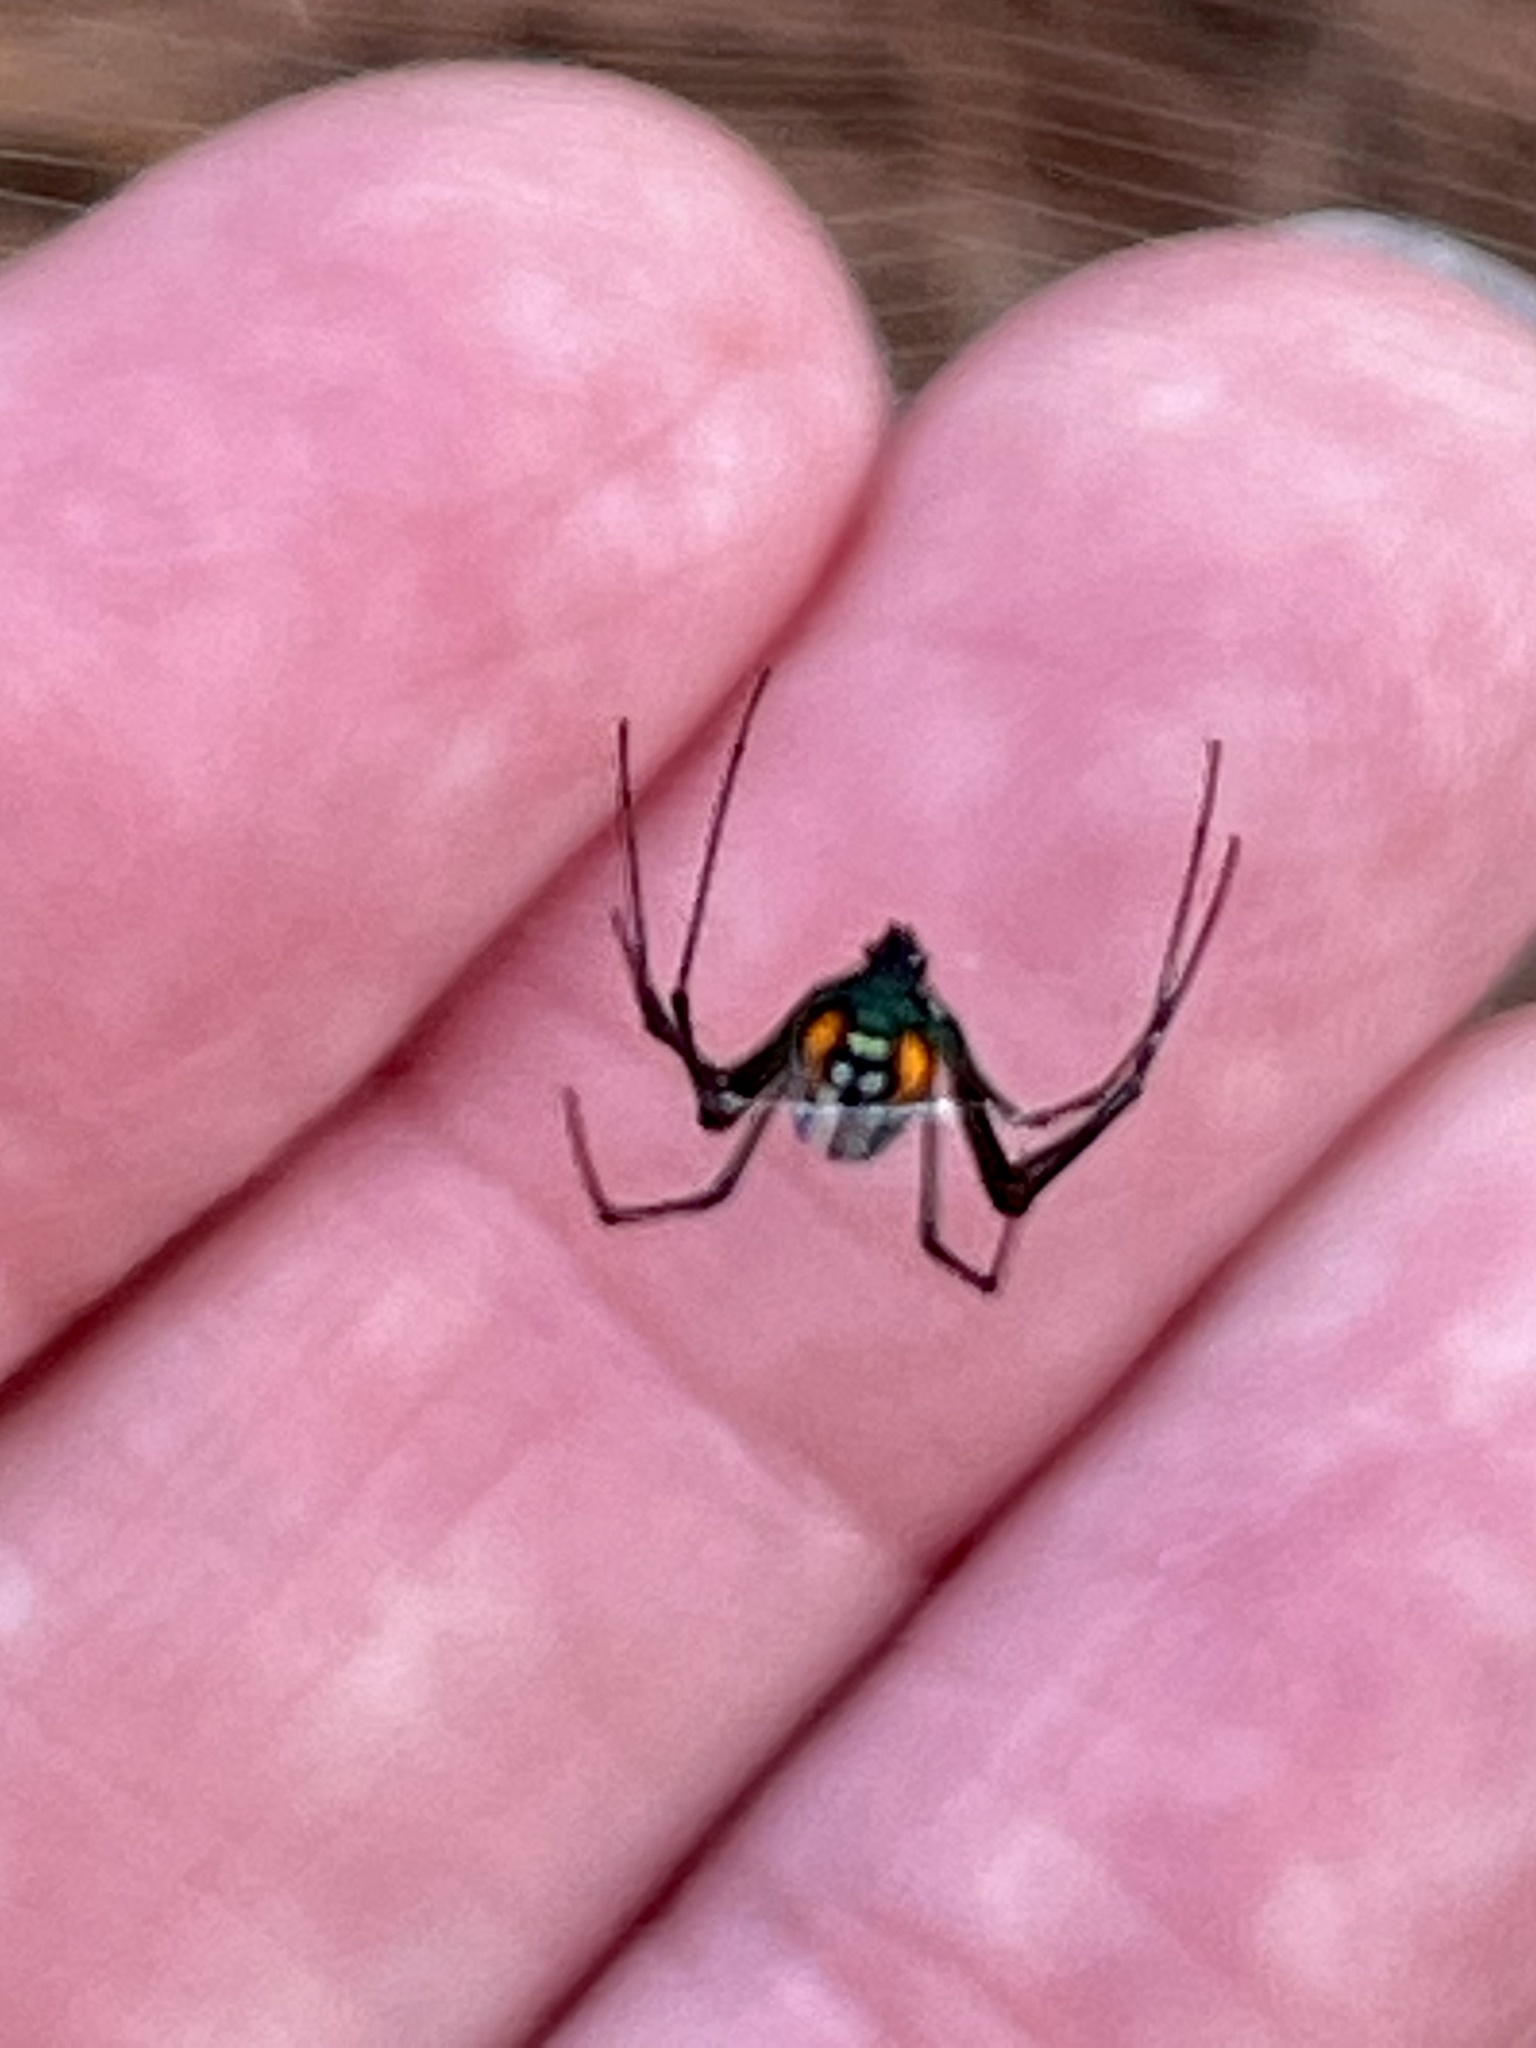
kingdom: Animalia
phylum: Arthropoda
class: Arachnida
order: Araneae
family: Tetragnathidae
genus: Leucauge
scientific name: Leucauge argyrobapta
